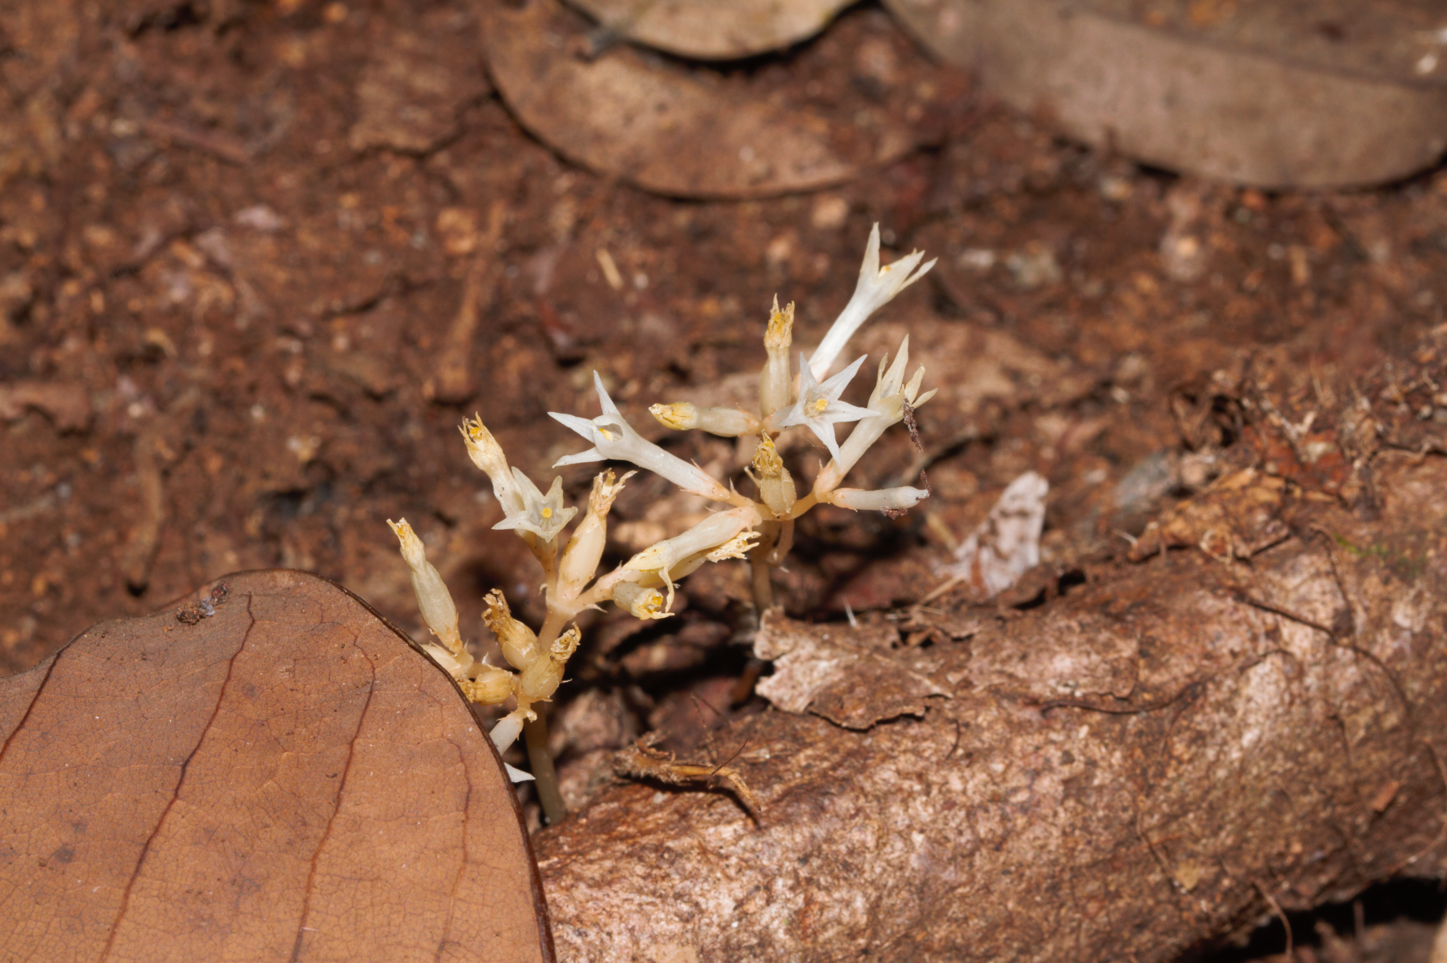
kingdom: Plantae
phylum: Tracheophyta
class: Magnoliopsida
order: Gentianales
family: Gentianaceae
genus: Voyria
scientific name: Voyria corymbosa
